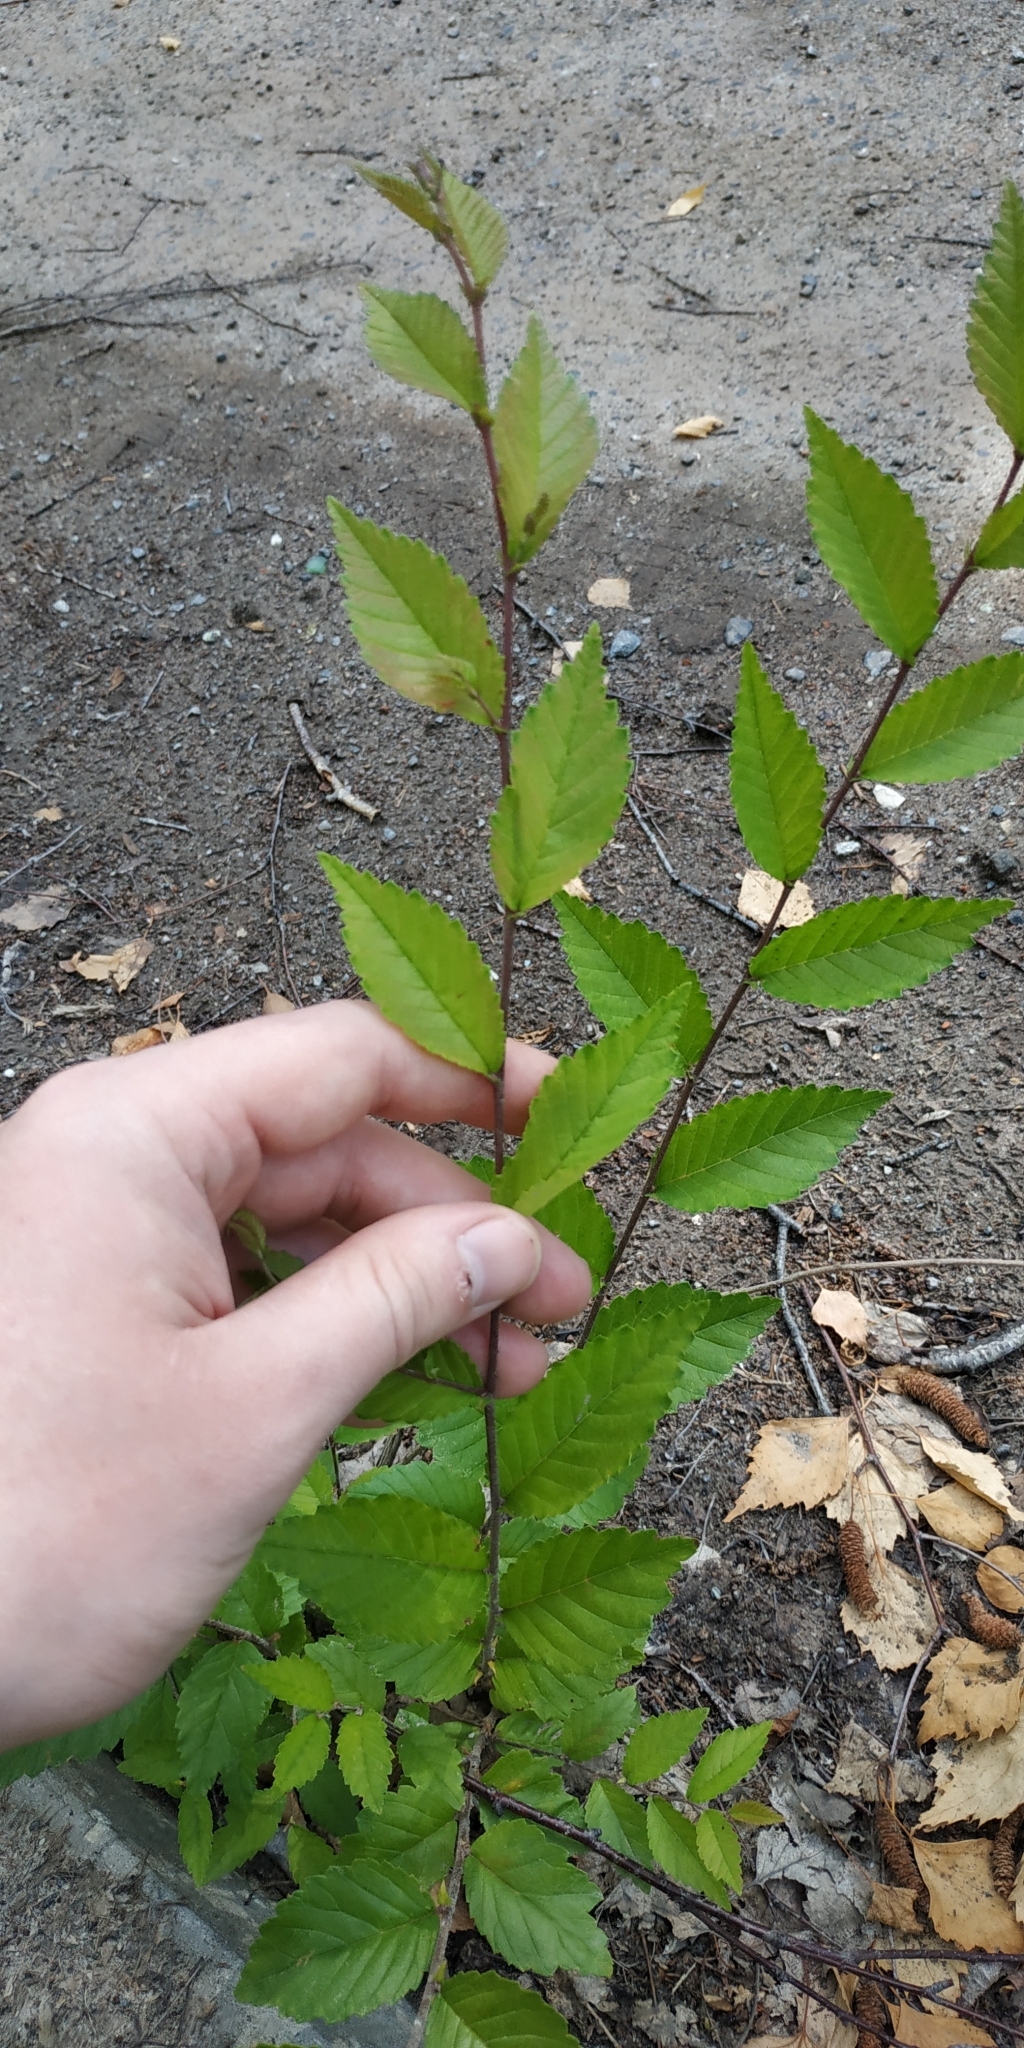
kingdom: Plantae
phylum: Tracheophyta
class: Magnoliopsida
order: Rosales
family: Ulmaceae
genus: Ulmus
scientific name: Ulmus pumila
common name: Siberian elm
